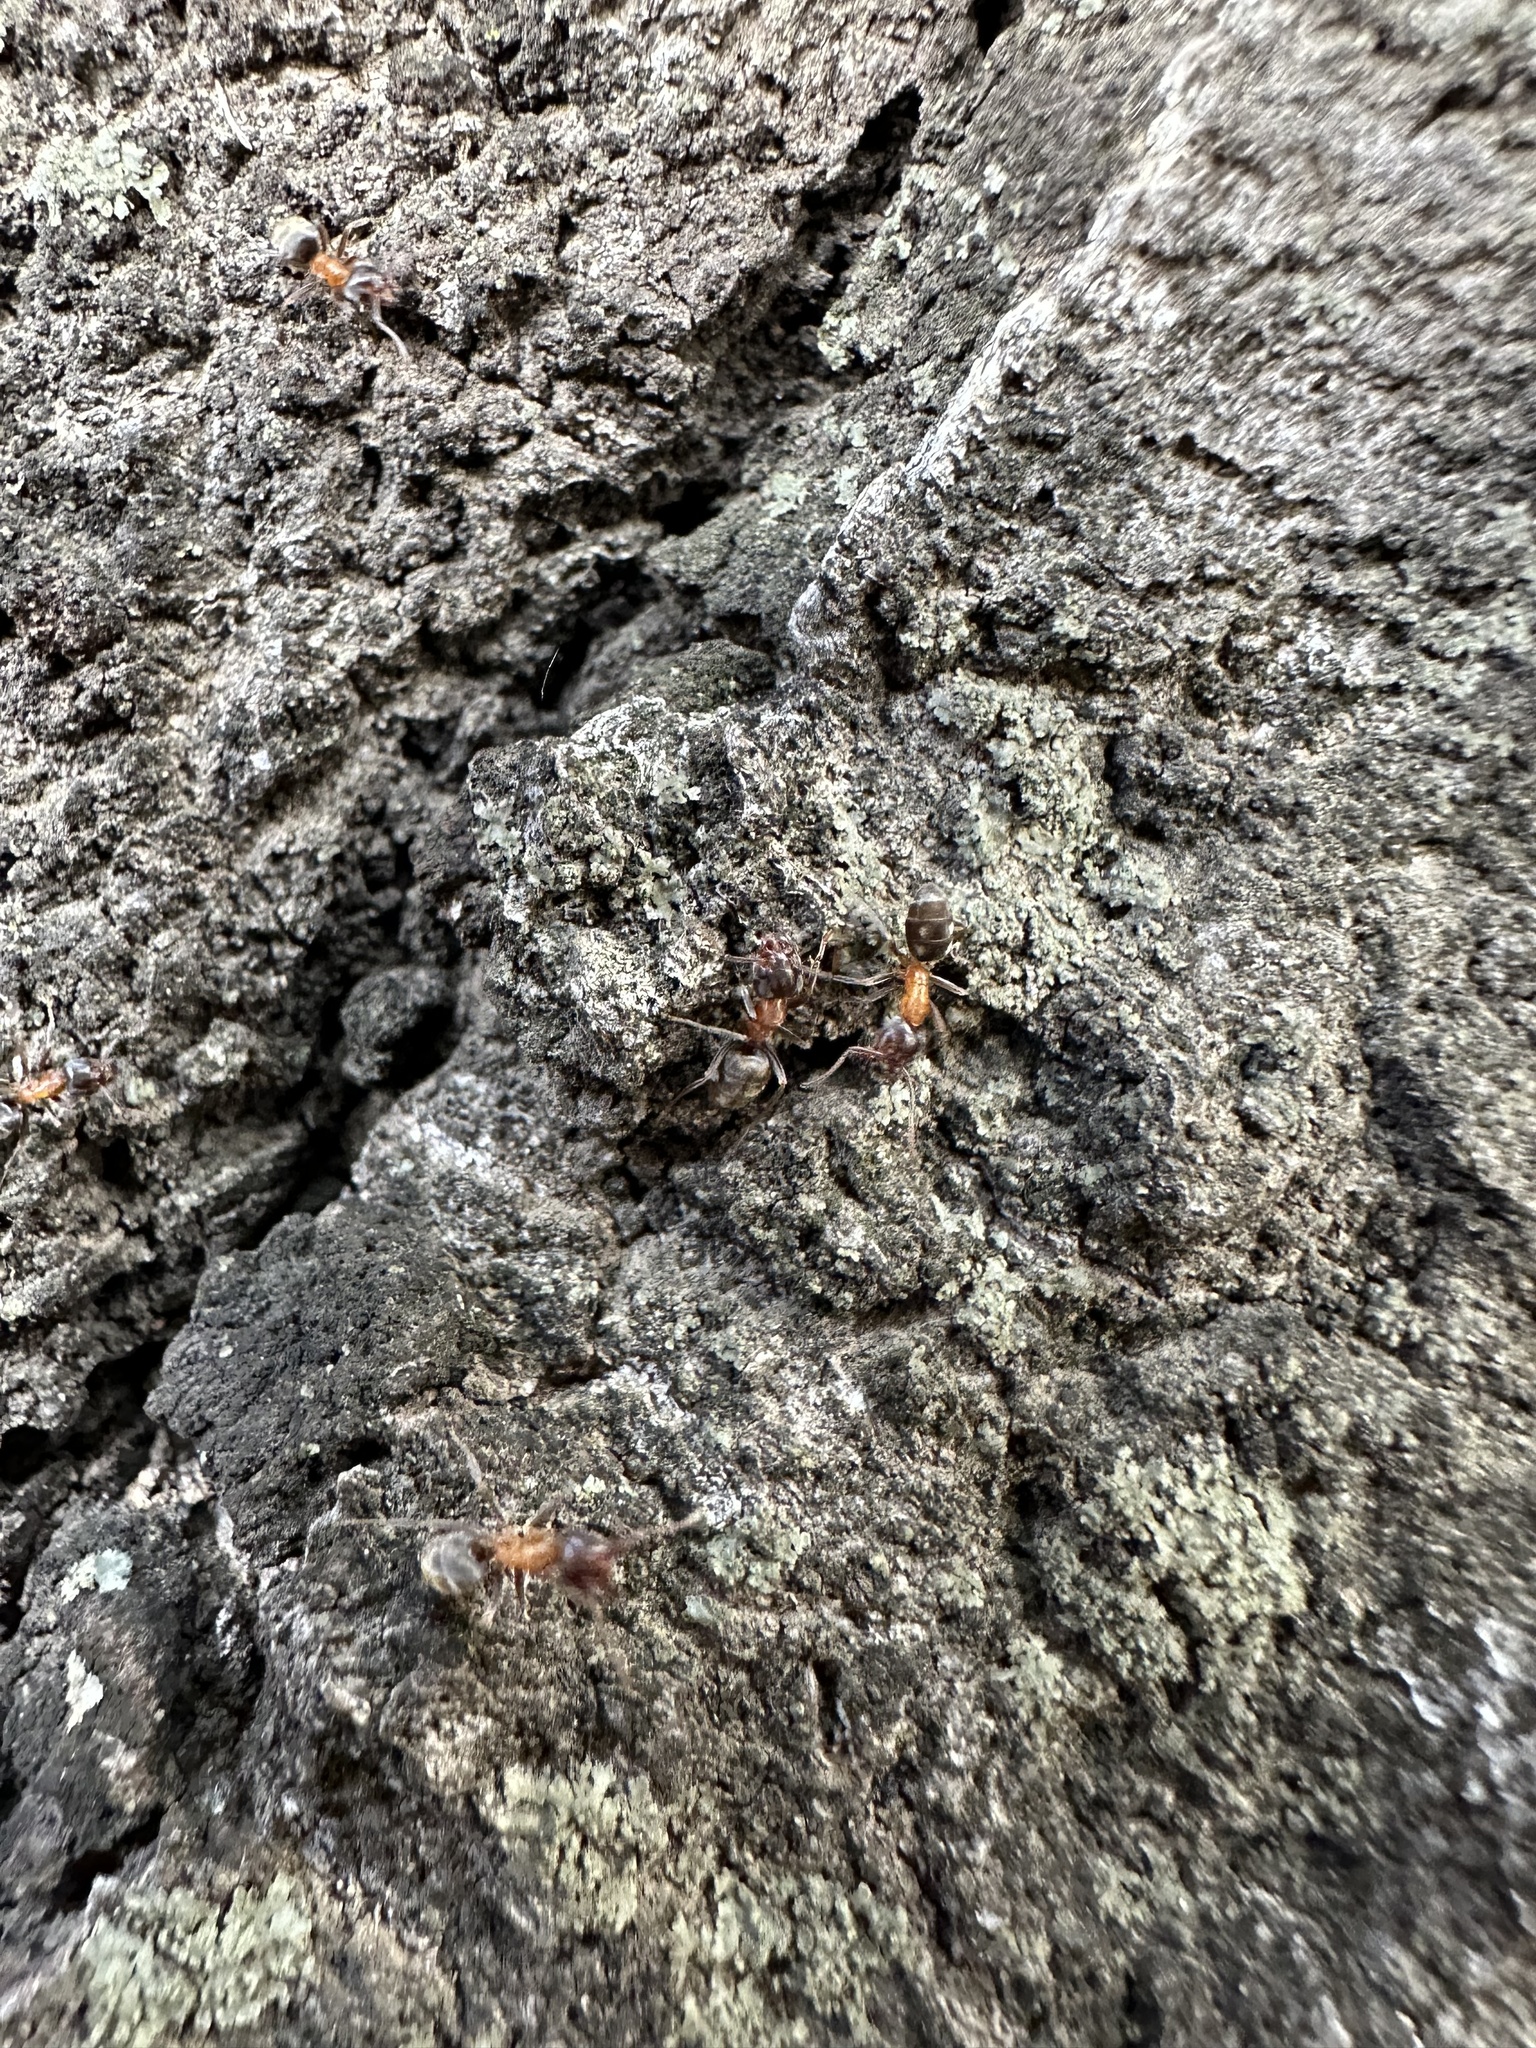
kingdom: Animalia
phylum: Arthropoda
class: Insecta
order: Hymenoptera
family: Formicidae
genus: Liometopum
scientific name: Liometopum occidentale
